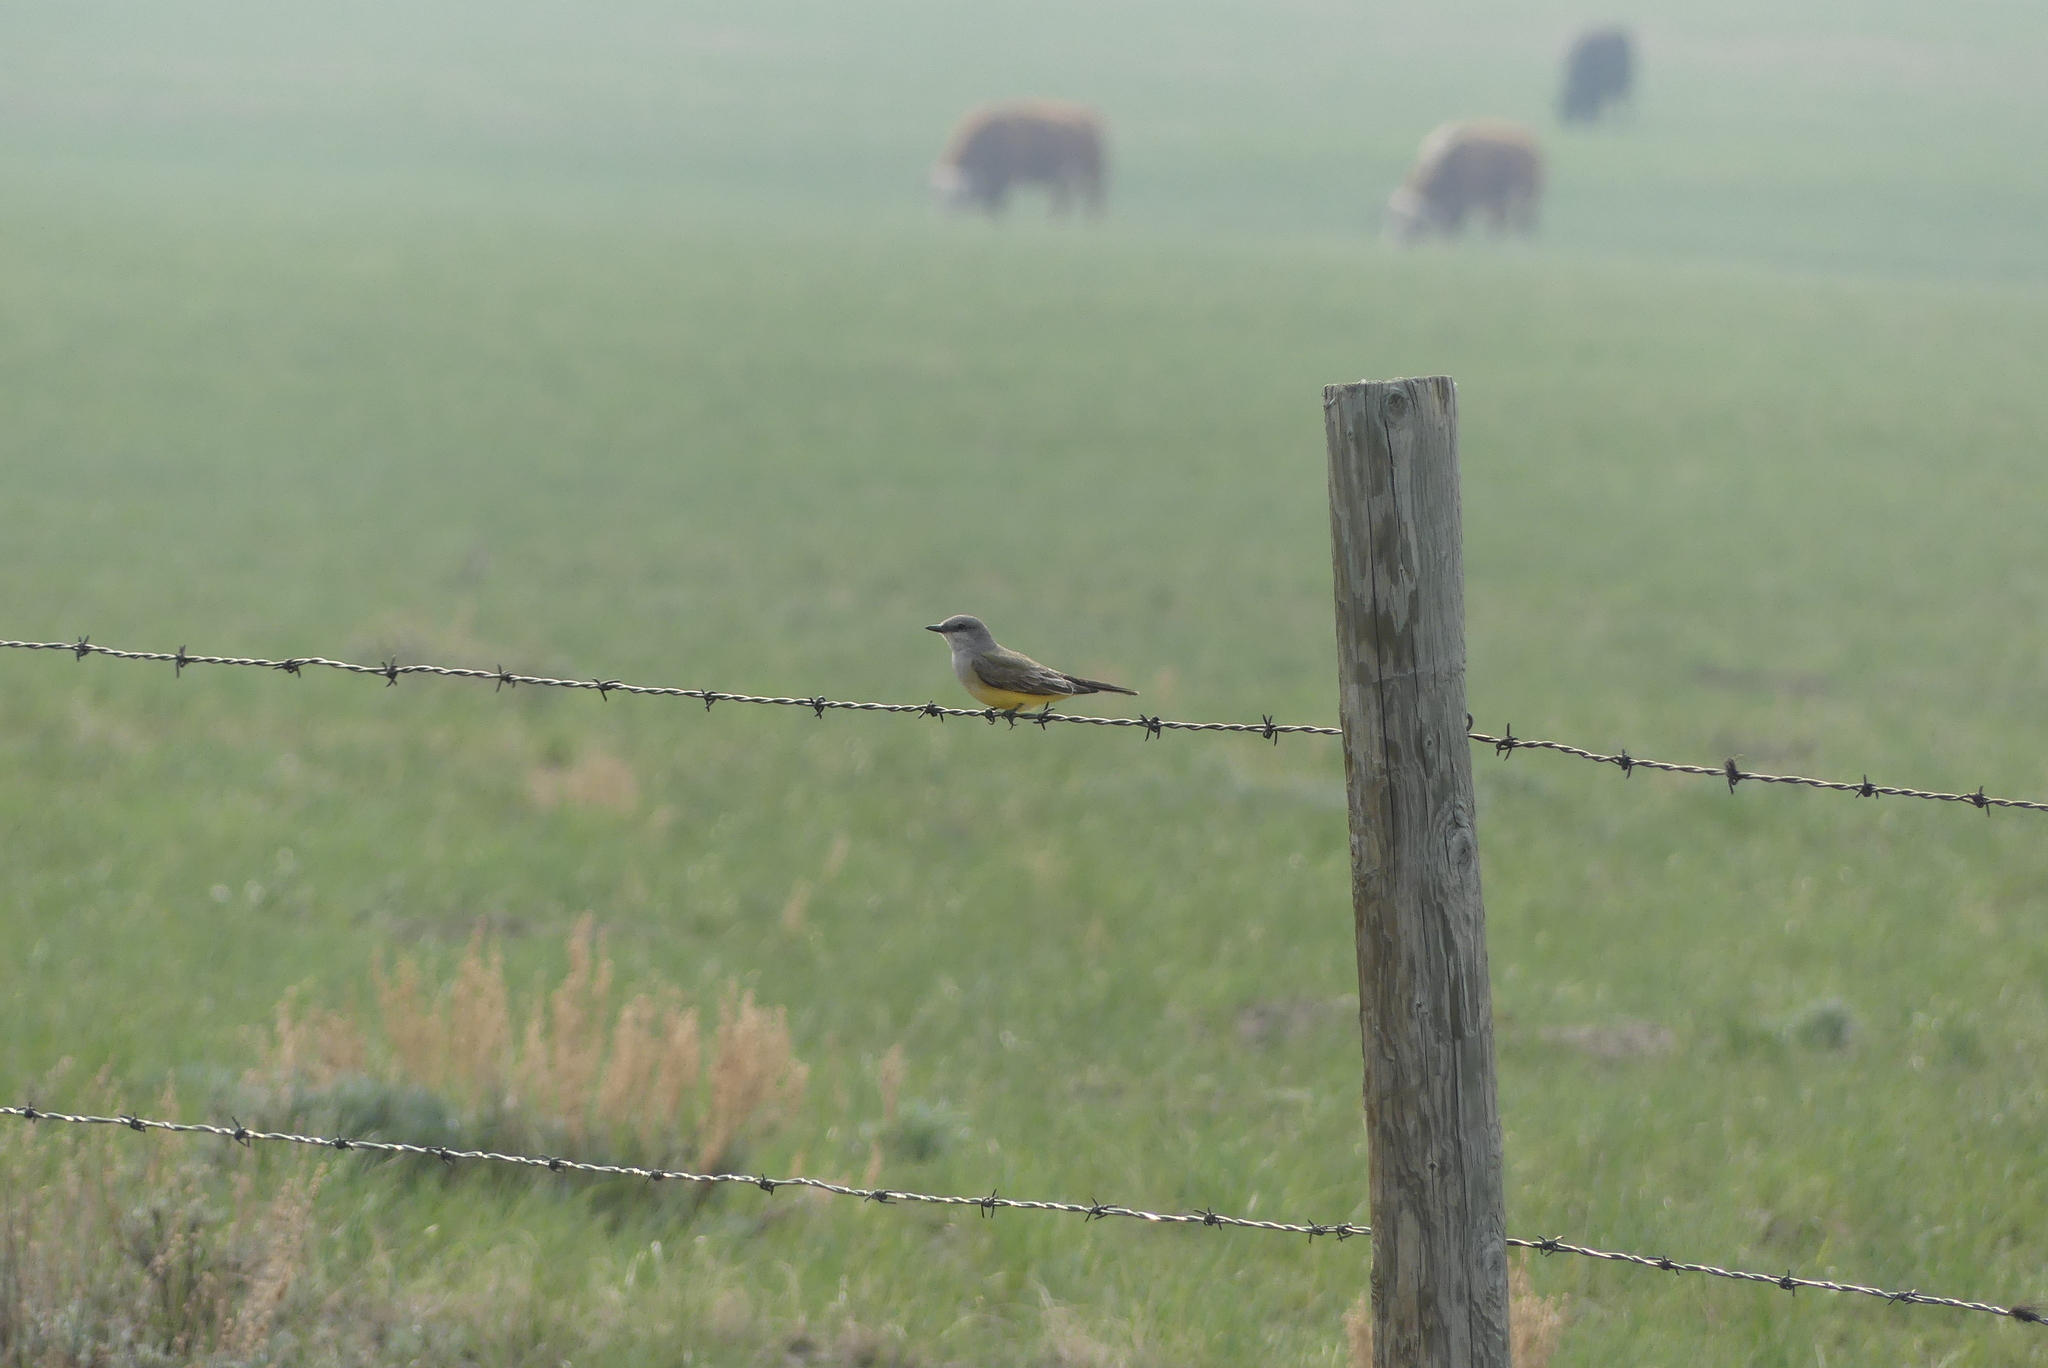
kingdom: Animalia
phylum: Chordata
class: Aves
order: Passeriformes
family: Tyrannidae
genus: Tyrannus
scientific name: Tyrannus verticalis
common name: Western kingbird
